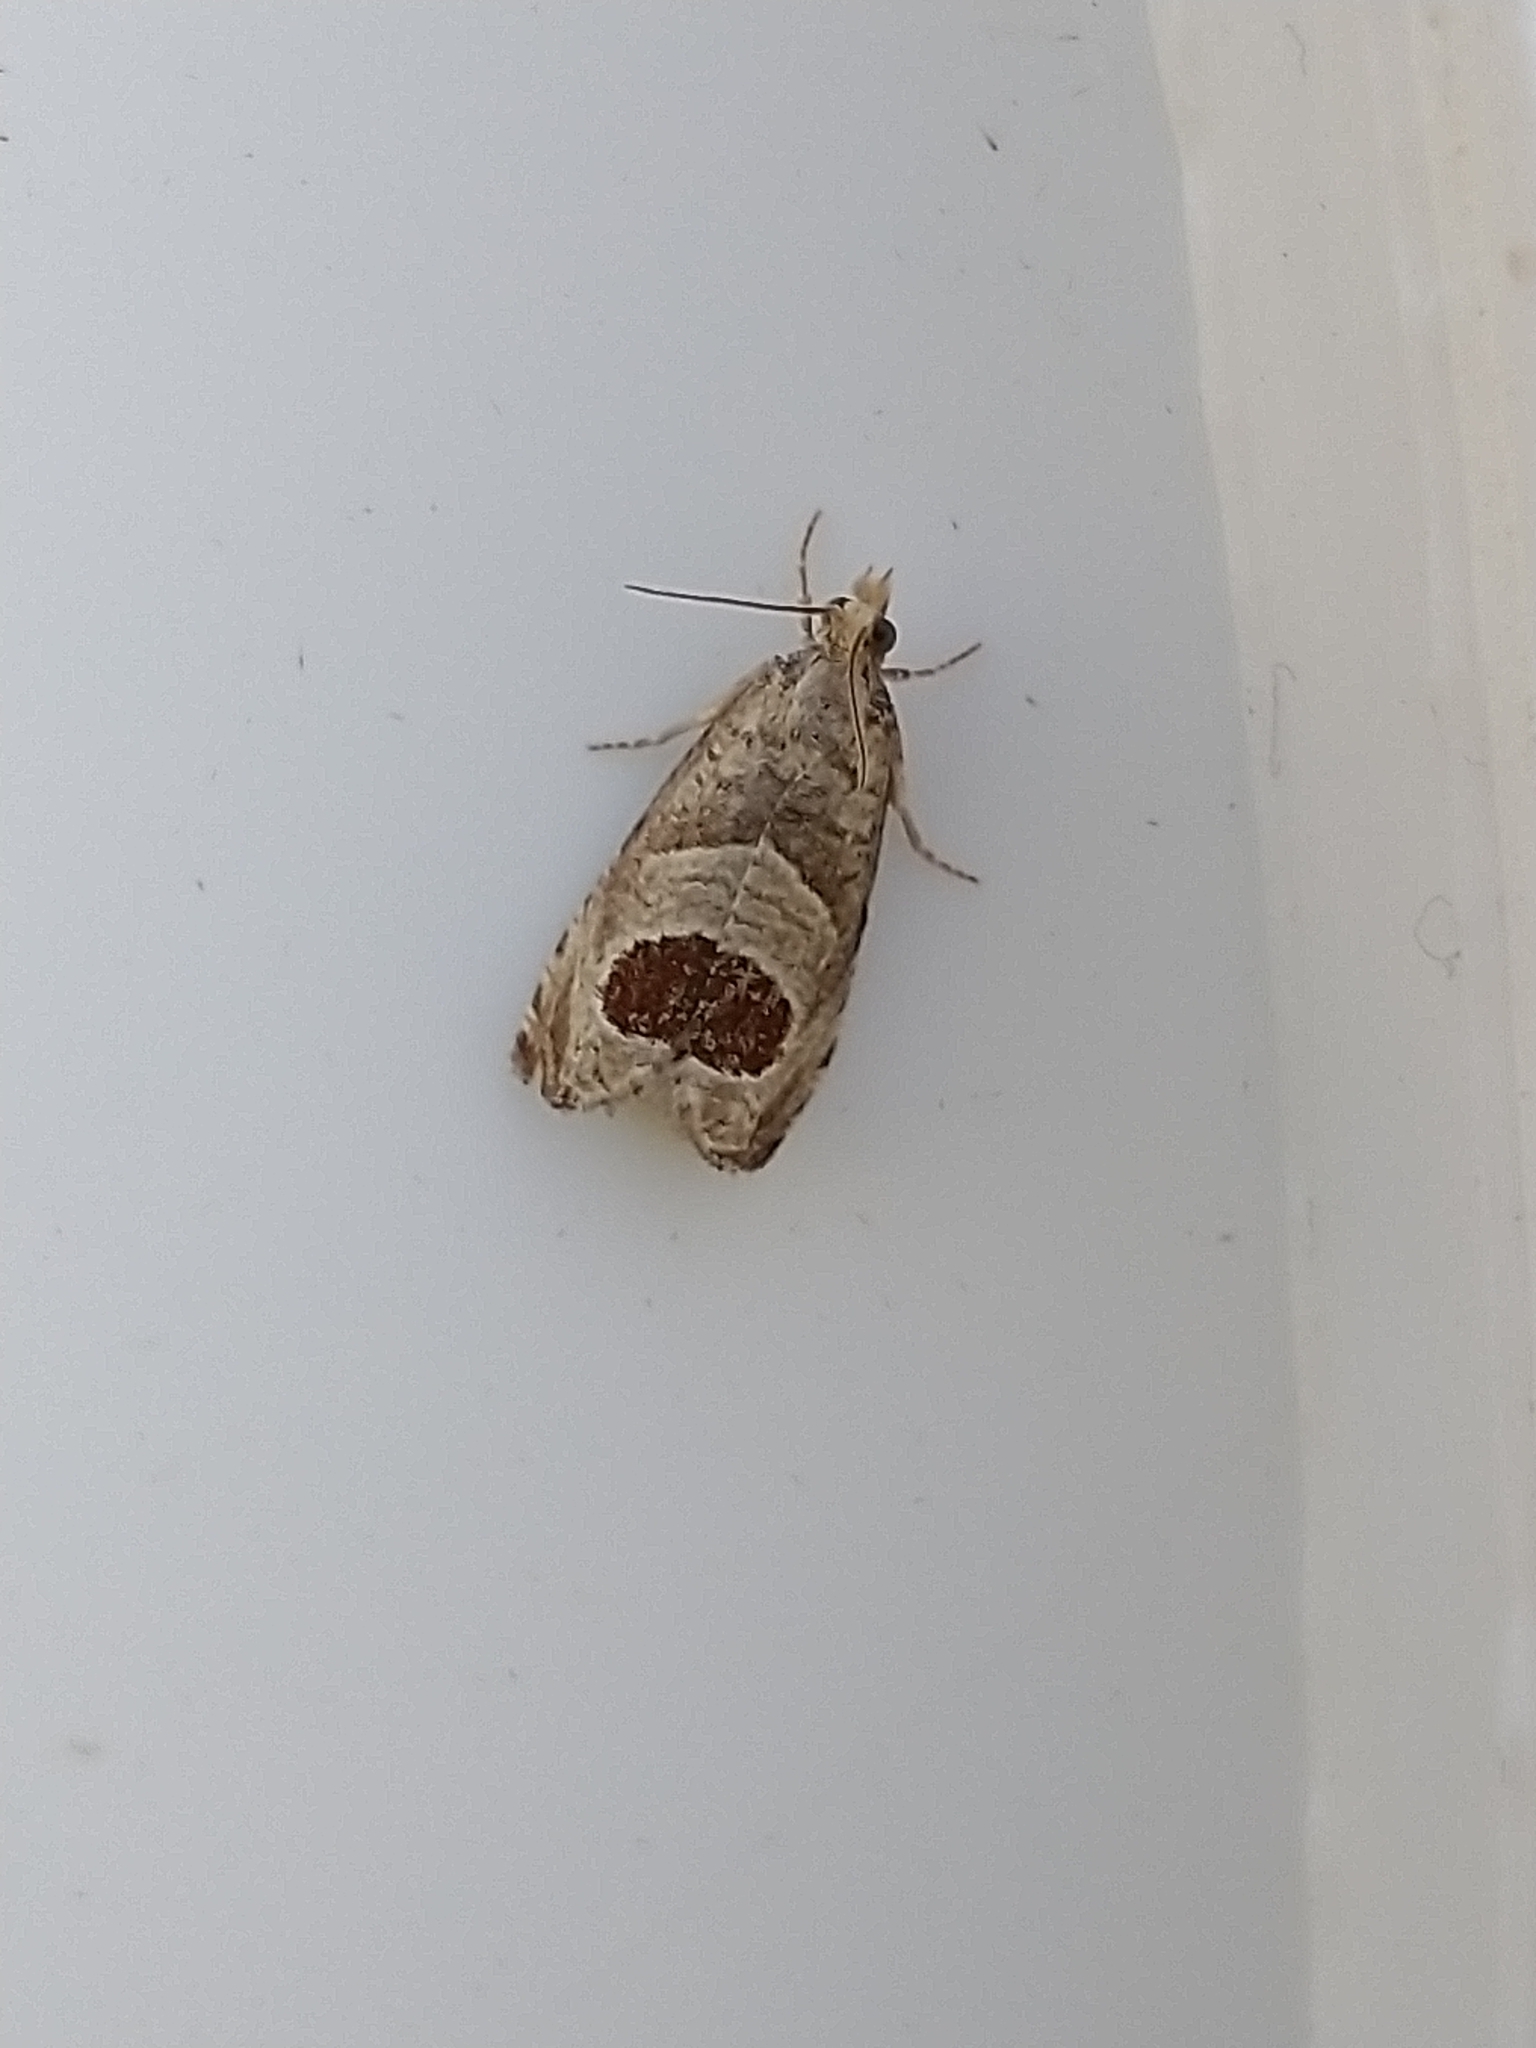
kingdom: Animalia
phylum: Arthropoda
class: Insecta
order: Lepidoptera
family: Tortricidae
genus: Notocelia
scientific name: Notocelia uddmanniana
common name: Bramble shoot moth
